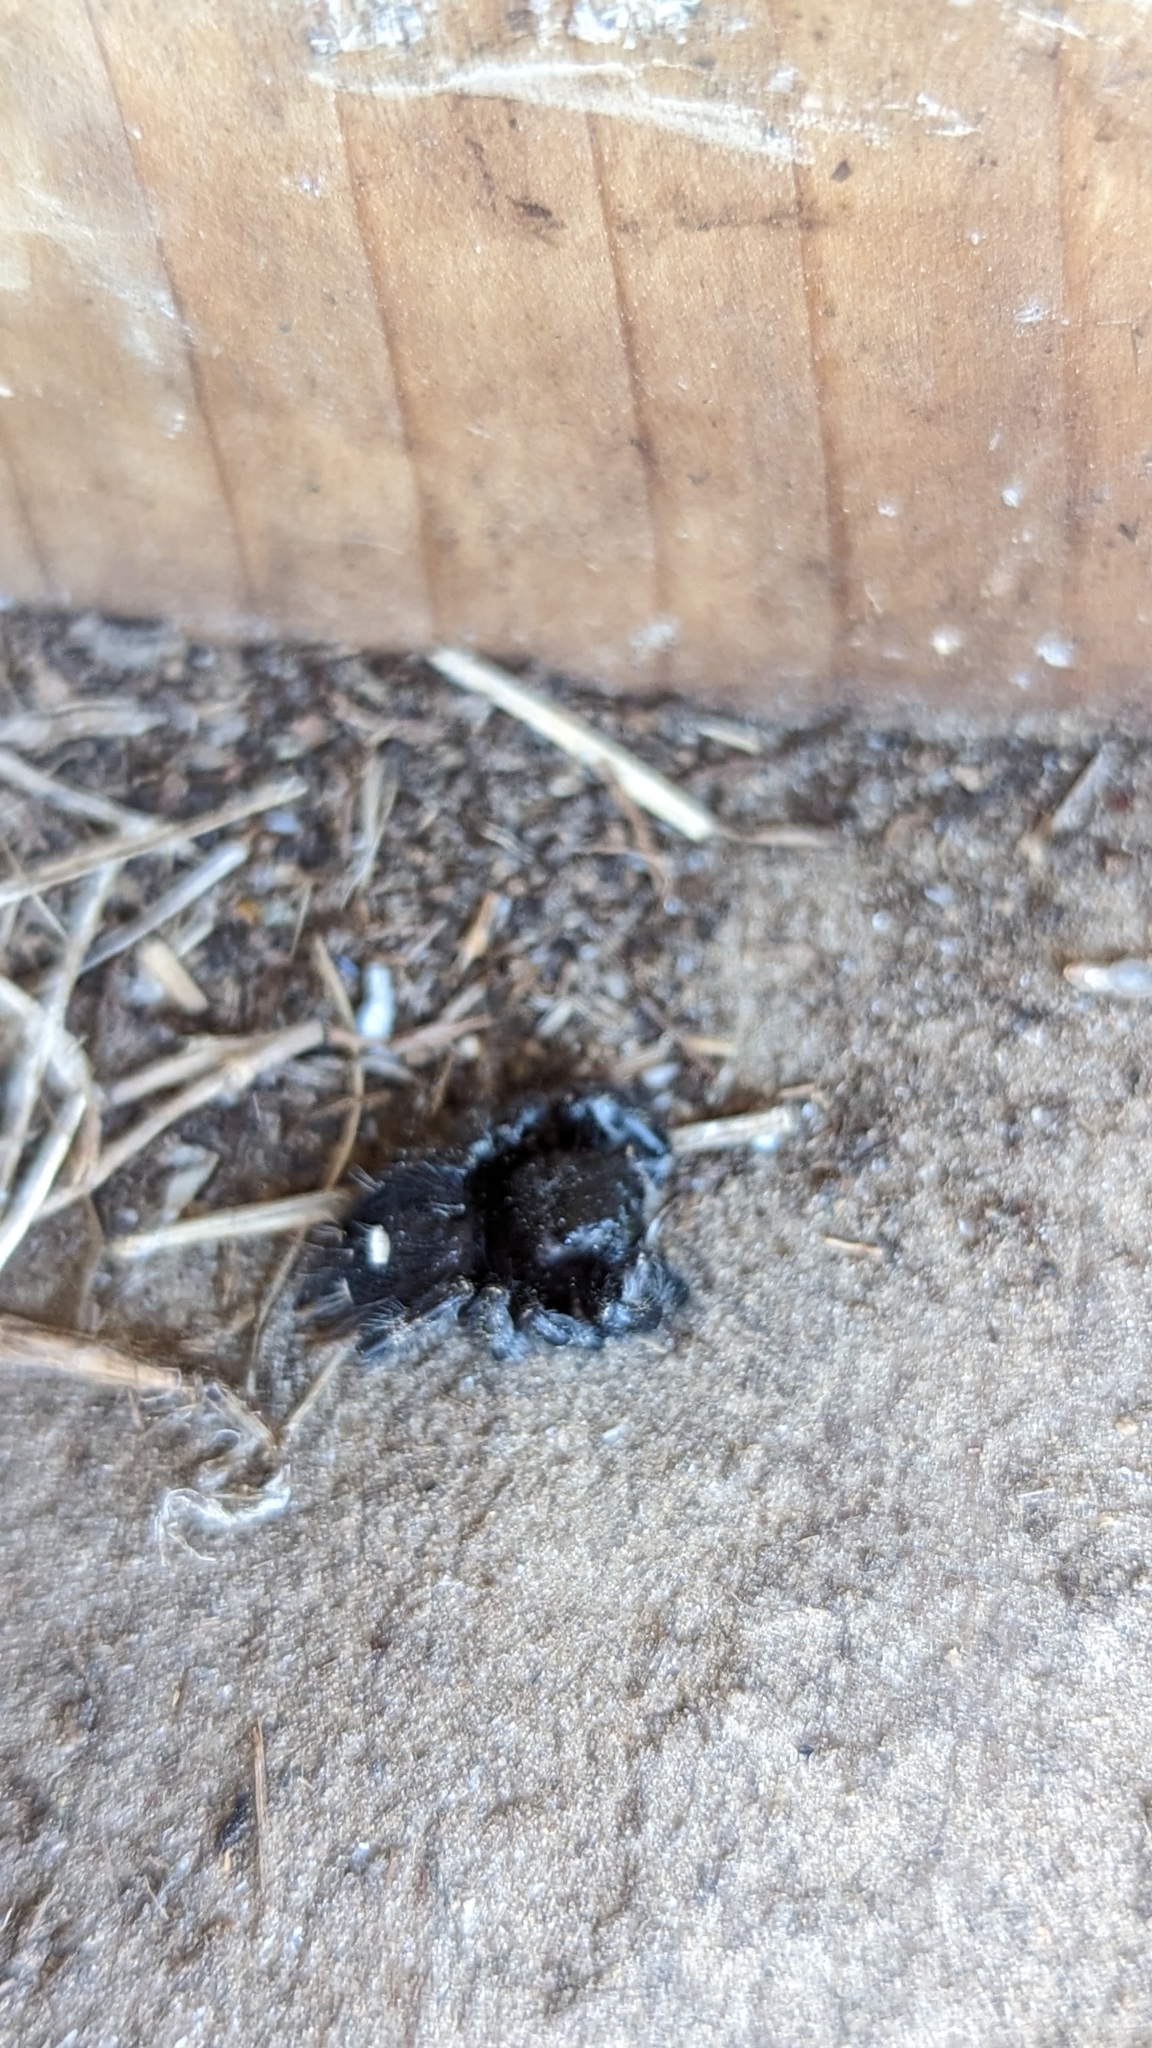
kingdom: Animalia
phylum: Arthropoda
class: Arachnida
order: Araneae
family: Salticidae
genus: Phidippus
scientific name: Phidippus audax
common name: Bold jumper
